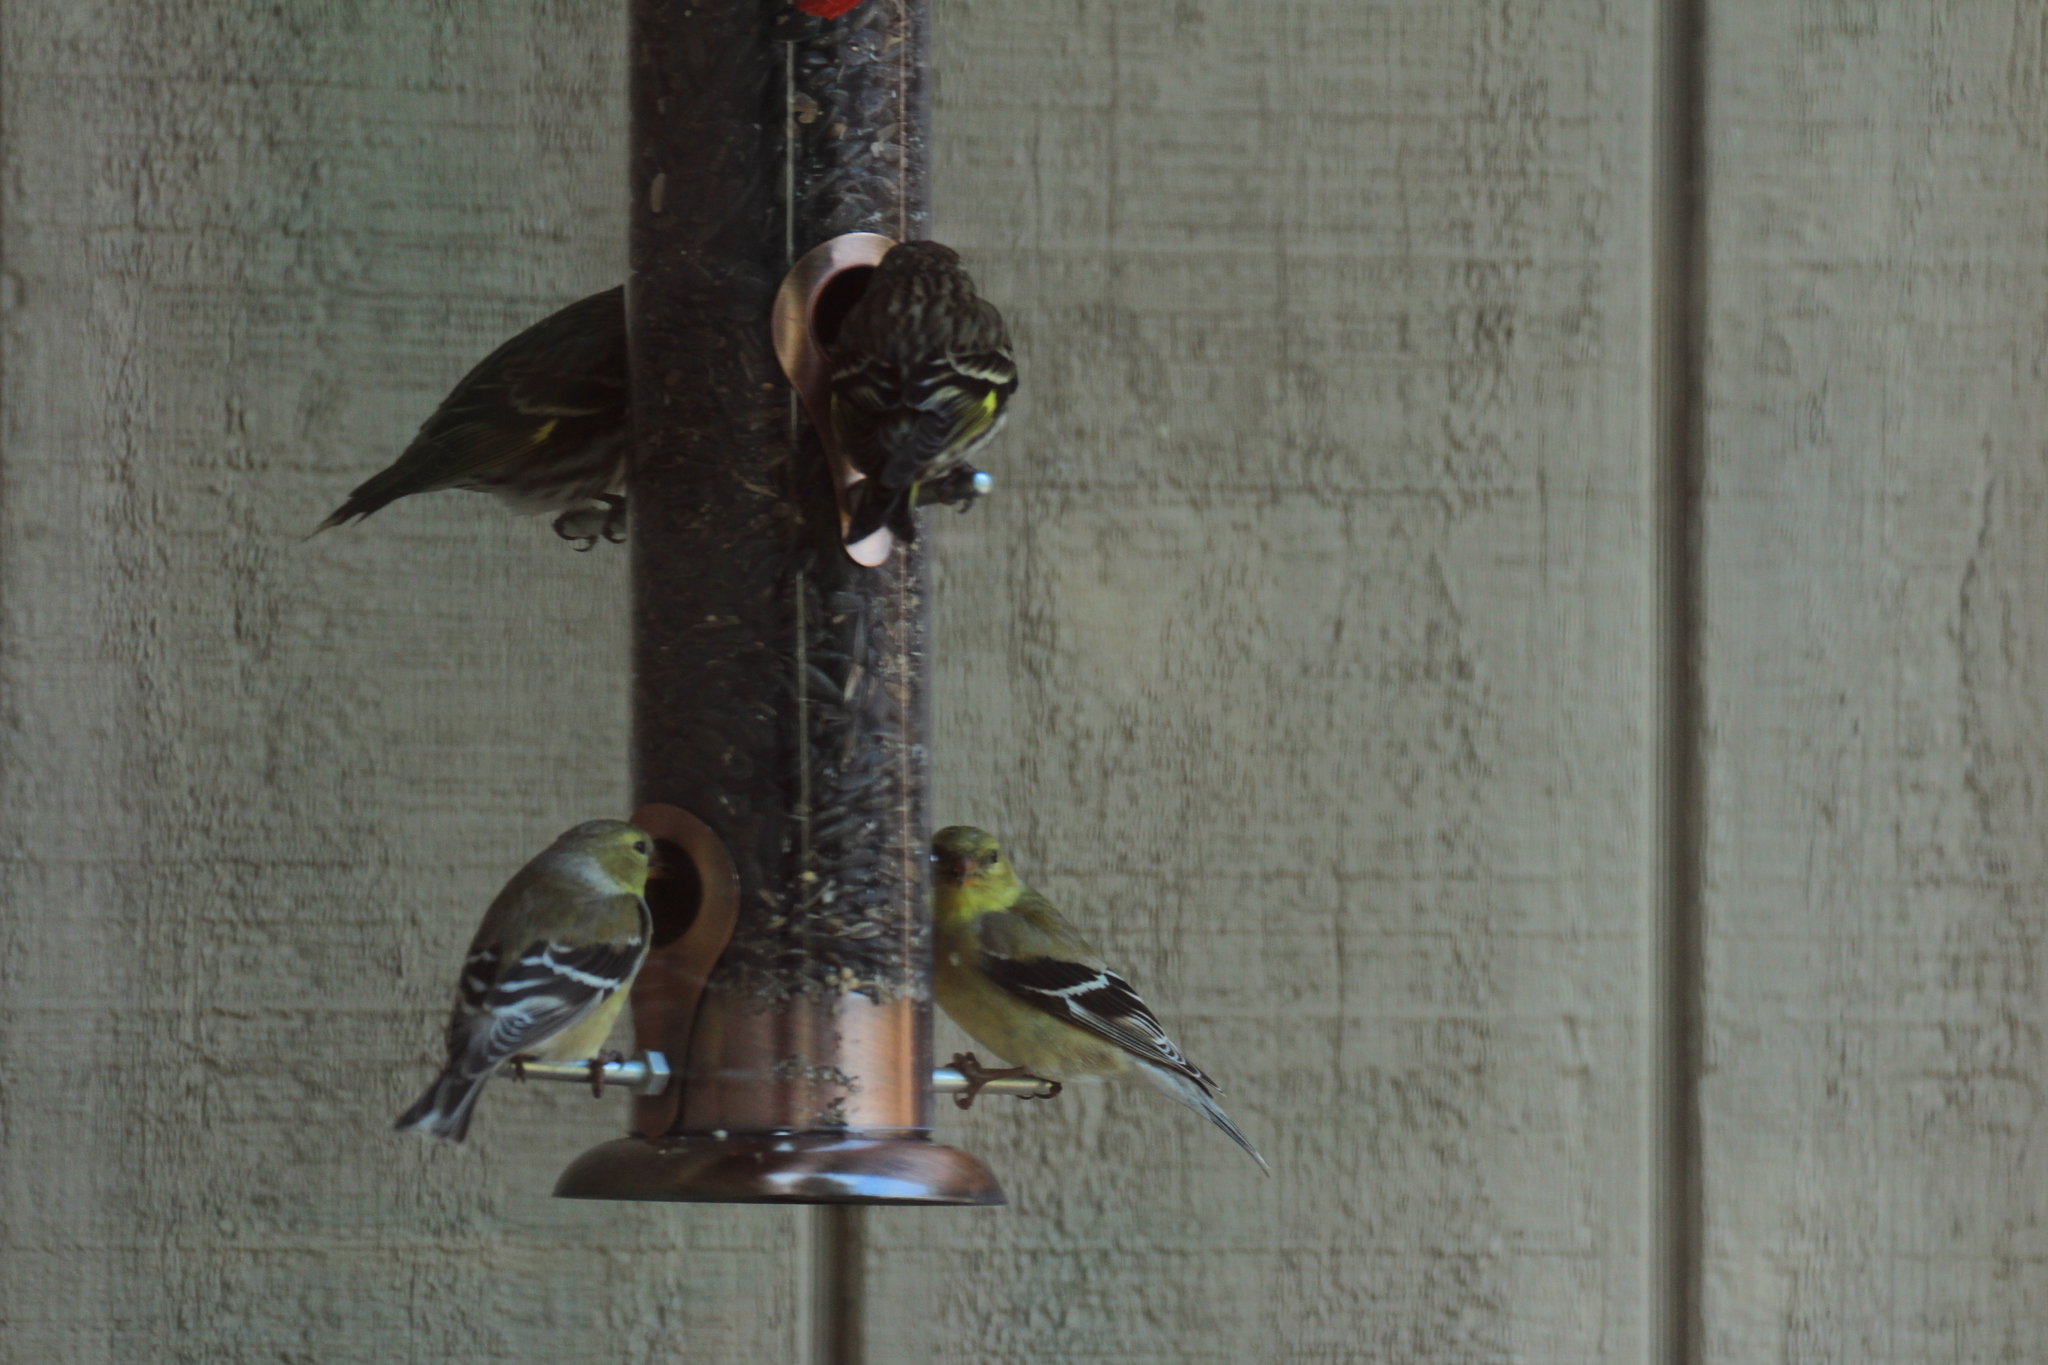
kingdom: Animalia
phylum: Chordata
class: Aves
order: Passeriformes
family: Fringillidae
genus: Spinus
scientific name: Spinus tristis
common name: American goldfinch
